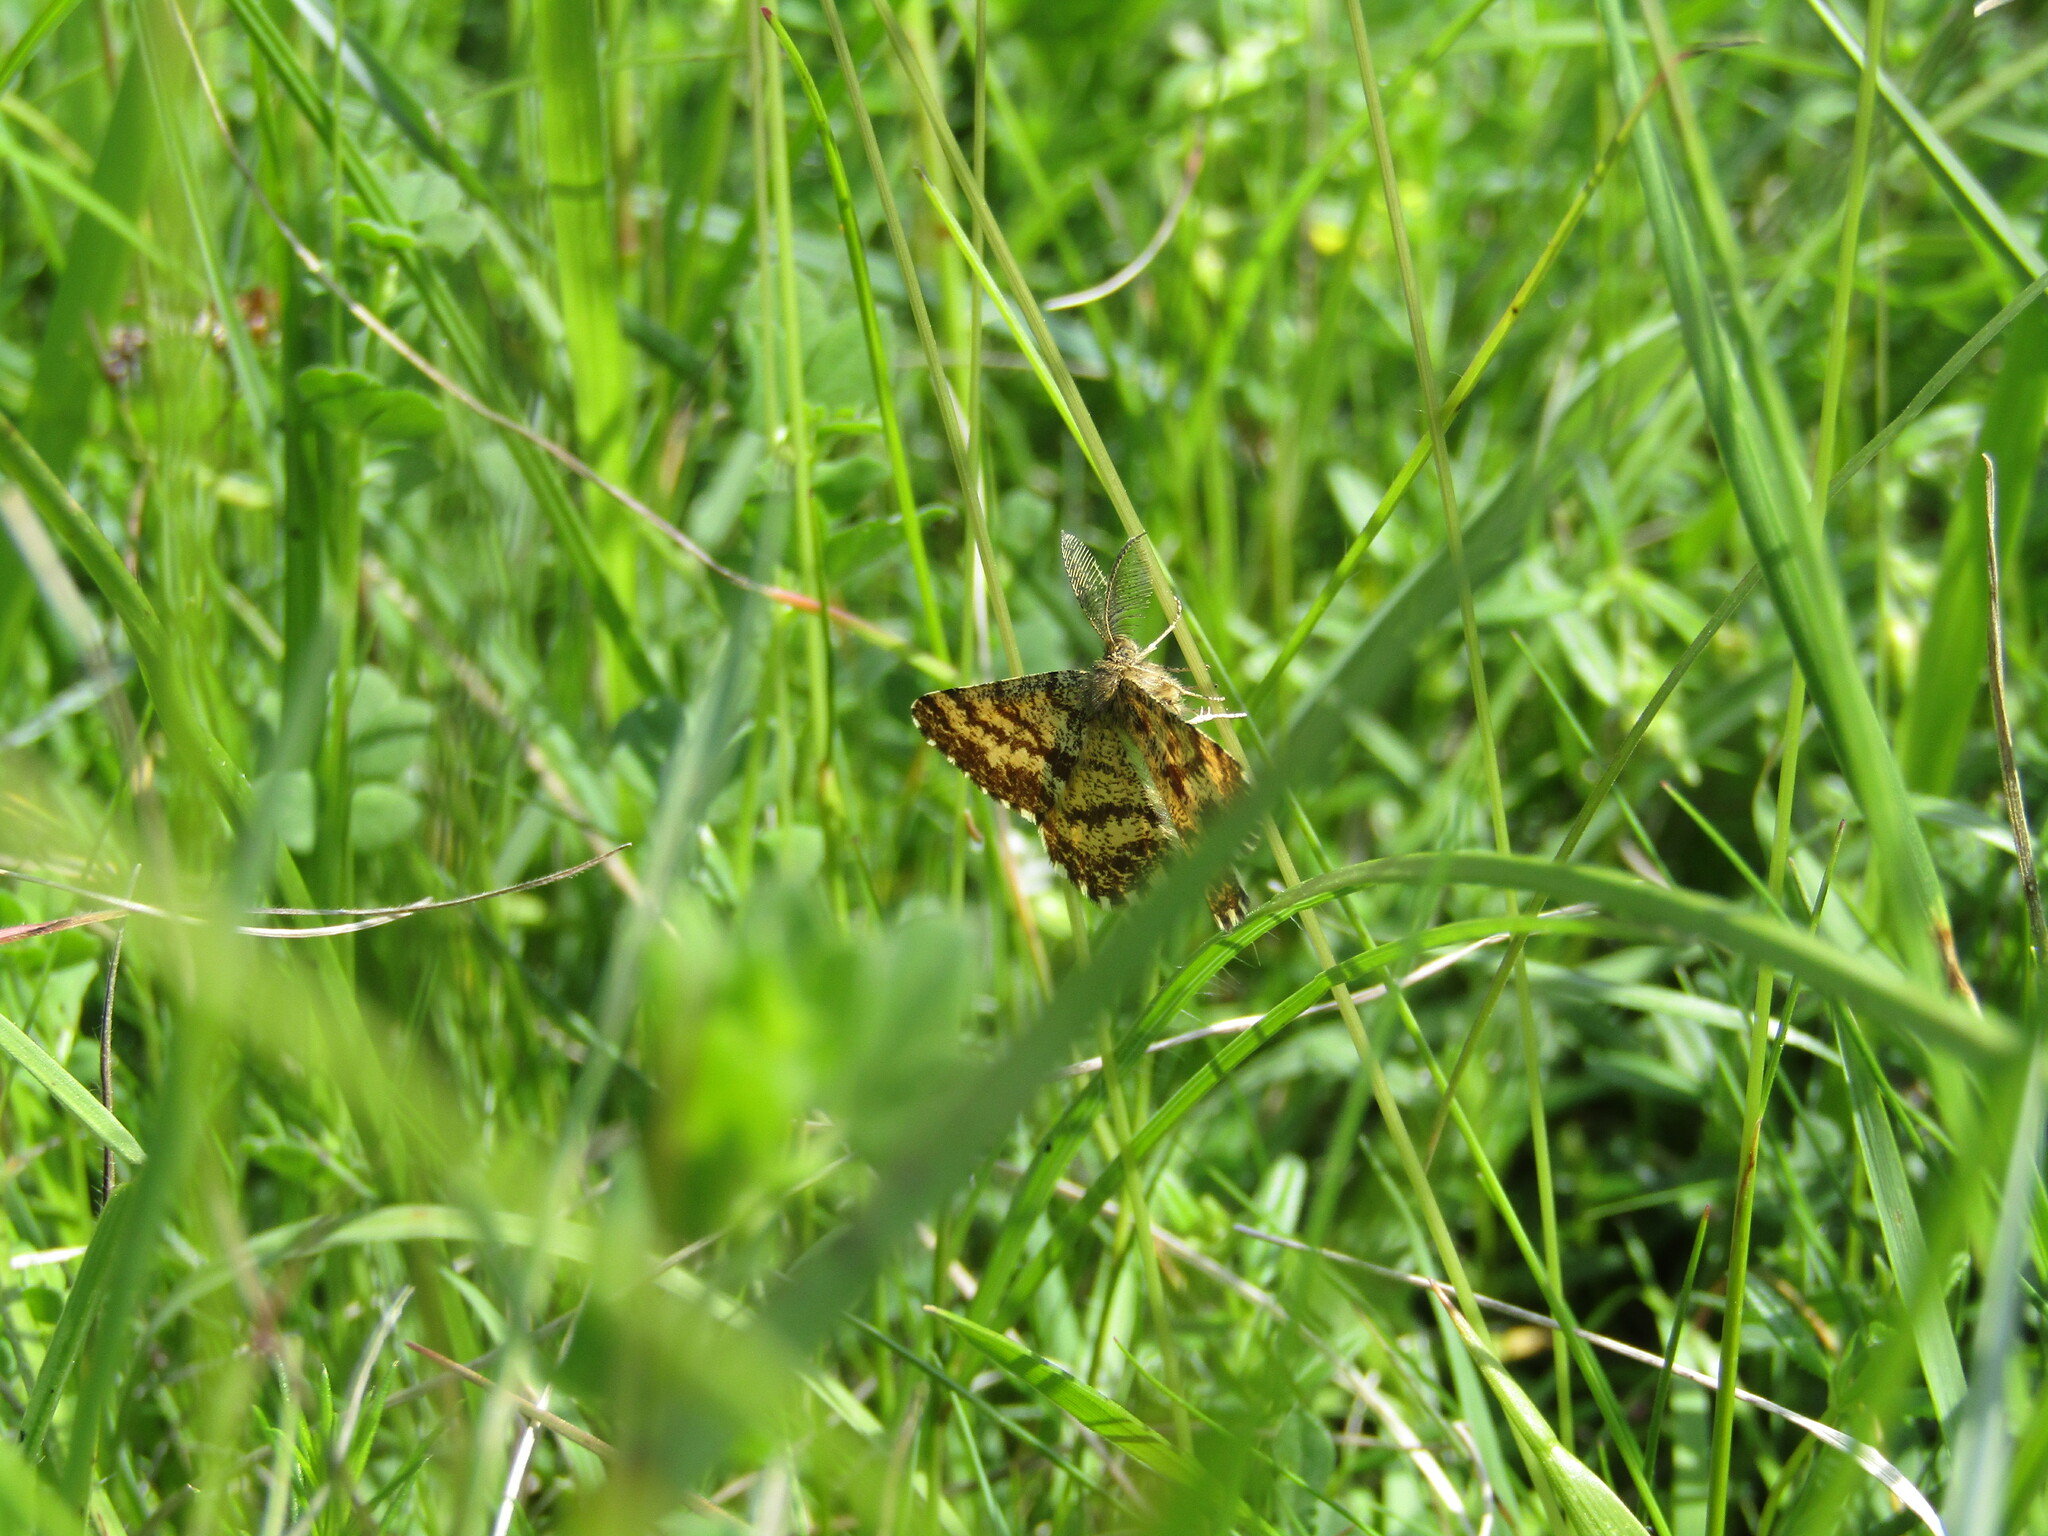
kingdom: Animalia
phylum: Arthropoda
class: Insecta
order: Lepidoptera
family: Geometridae
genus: Ematurga
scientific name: Ematurga atomaria
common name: Common heath
